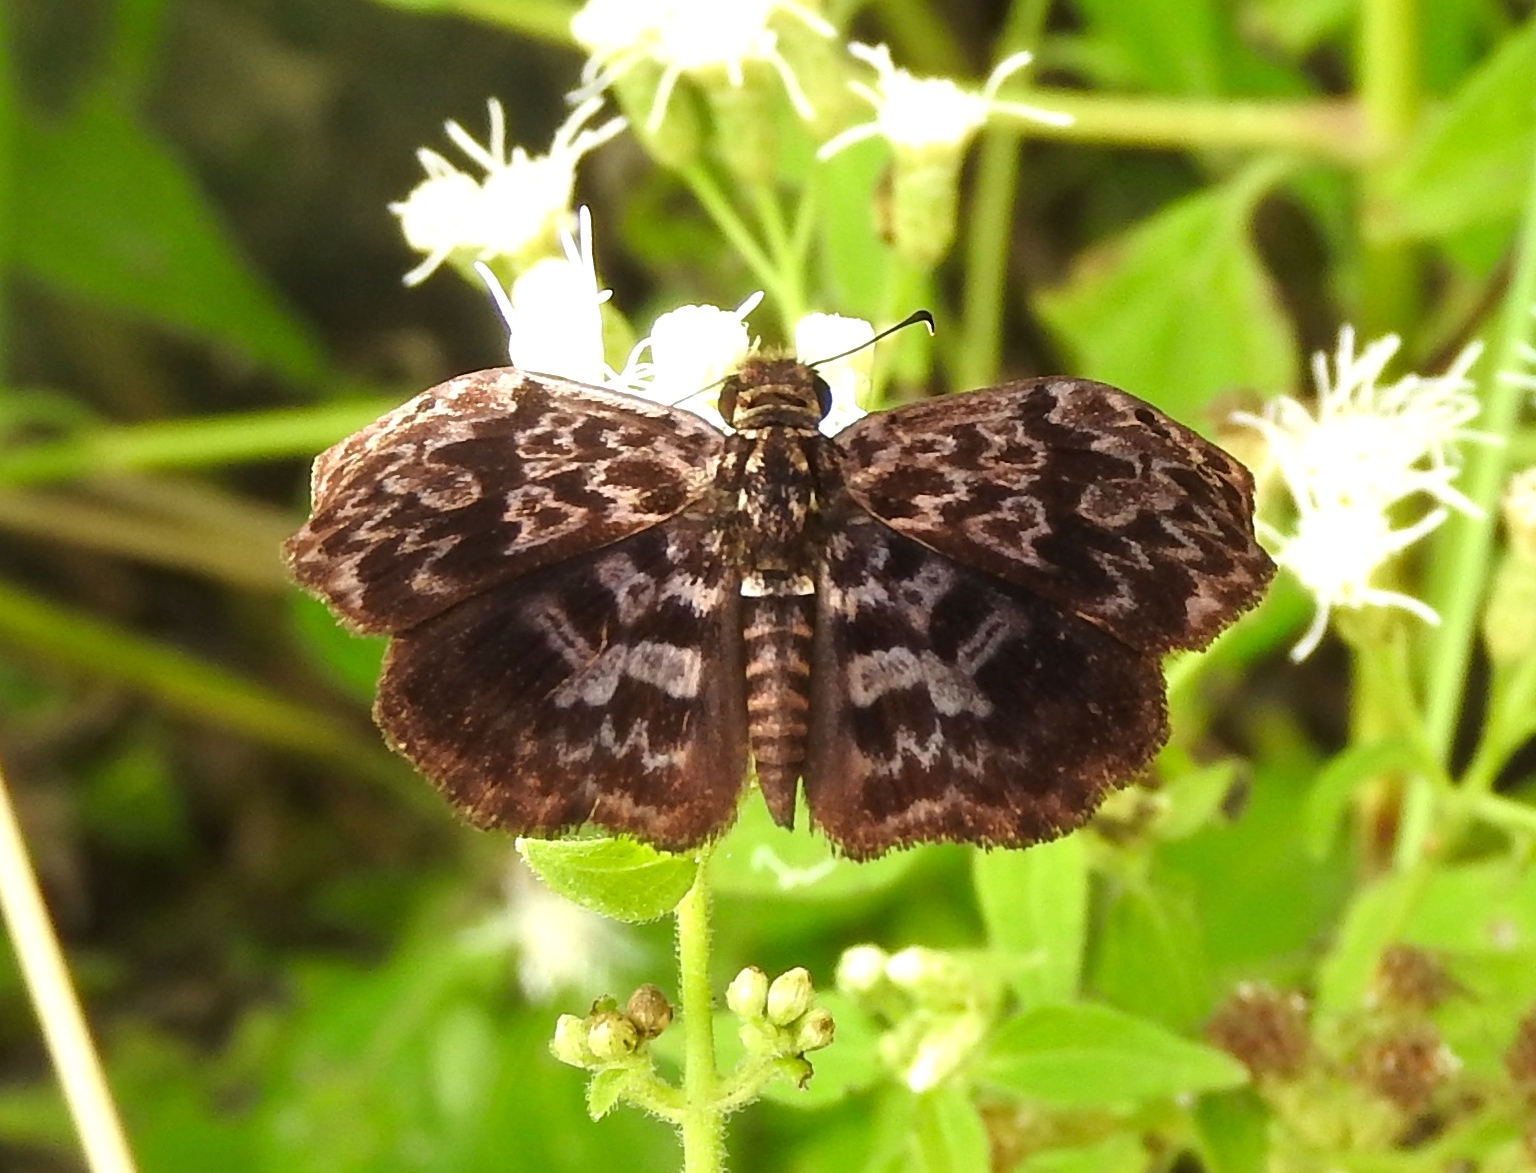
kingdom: Animalia
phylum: Arthropoda
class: Insecta
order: Lepidoptera
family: Hesperiidae
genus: Cycloglypha
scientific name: Cycloglypha thrasibulus
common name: Widespread bent-skipper
